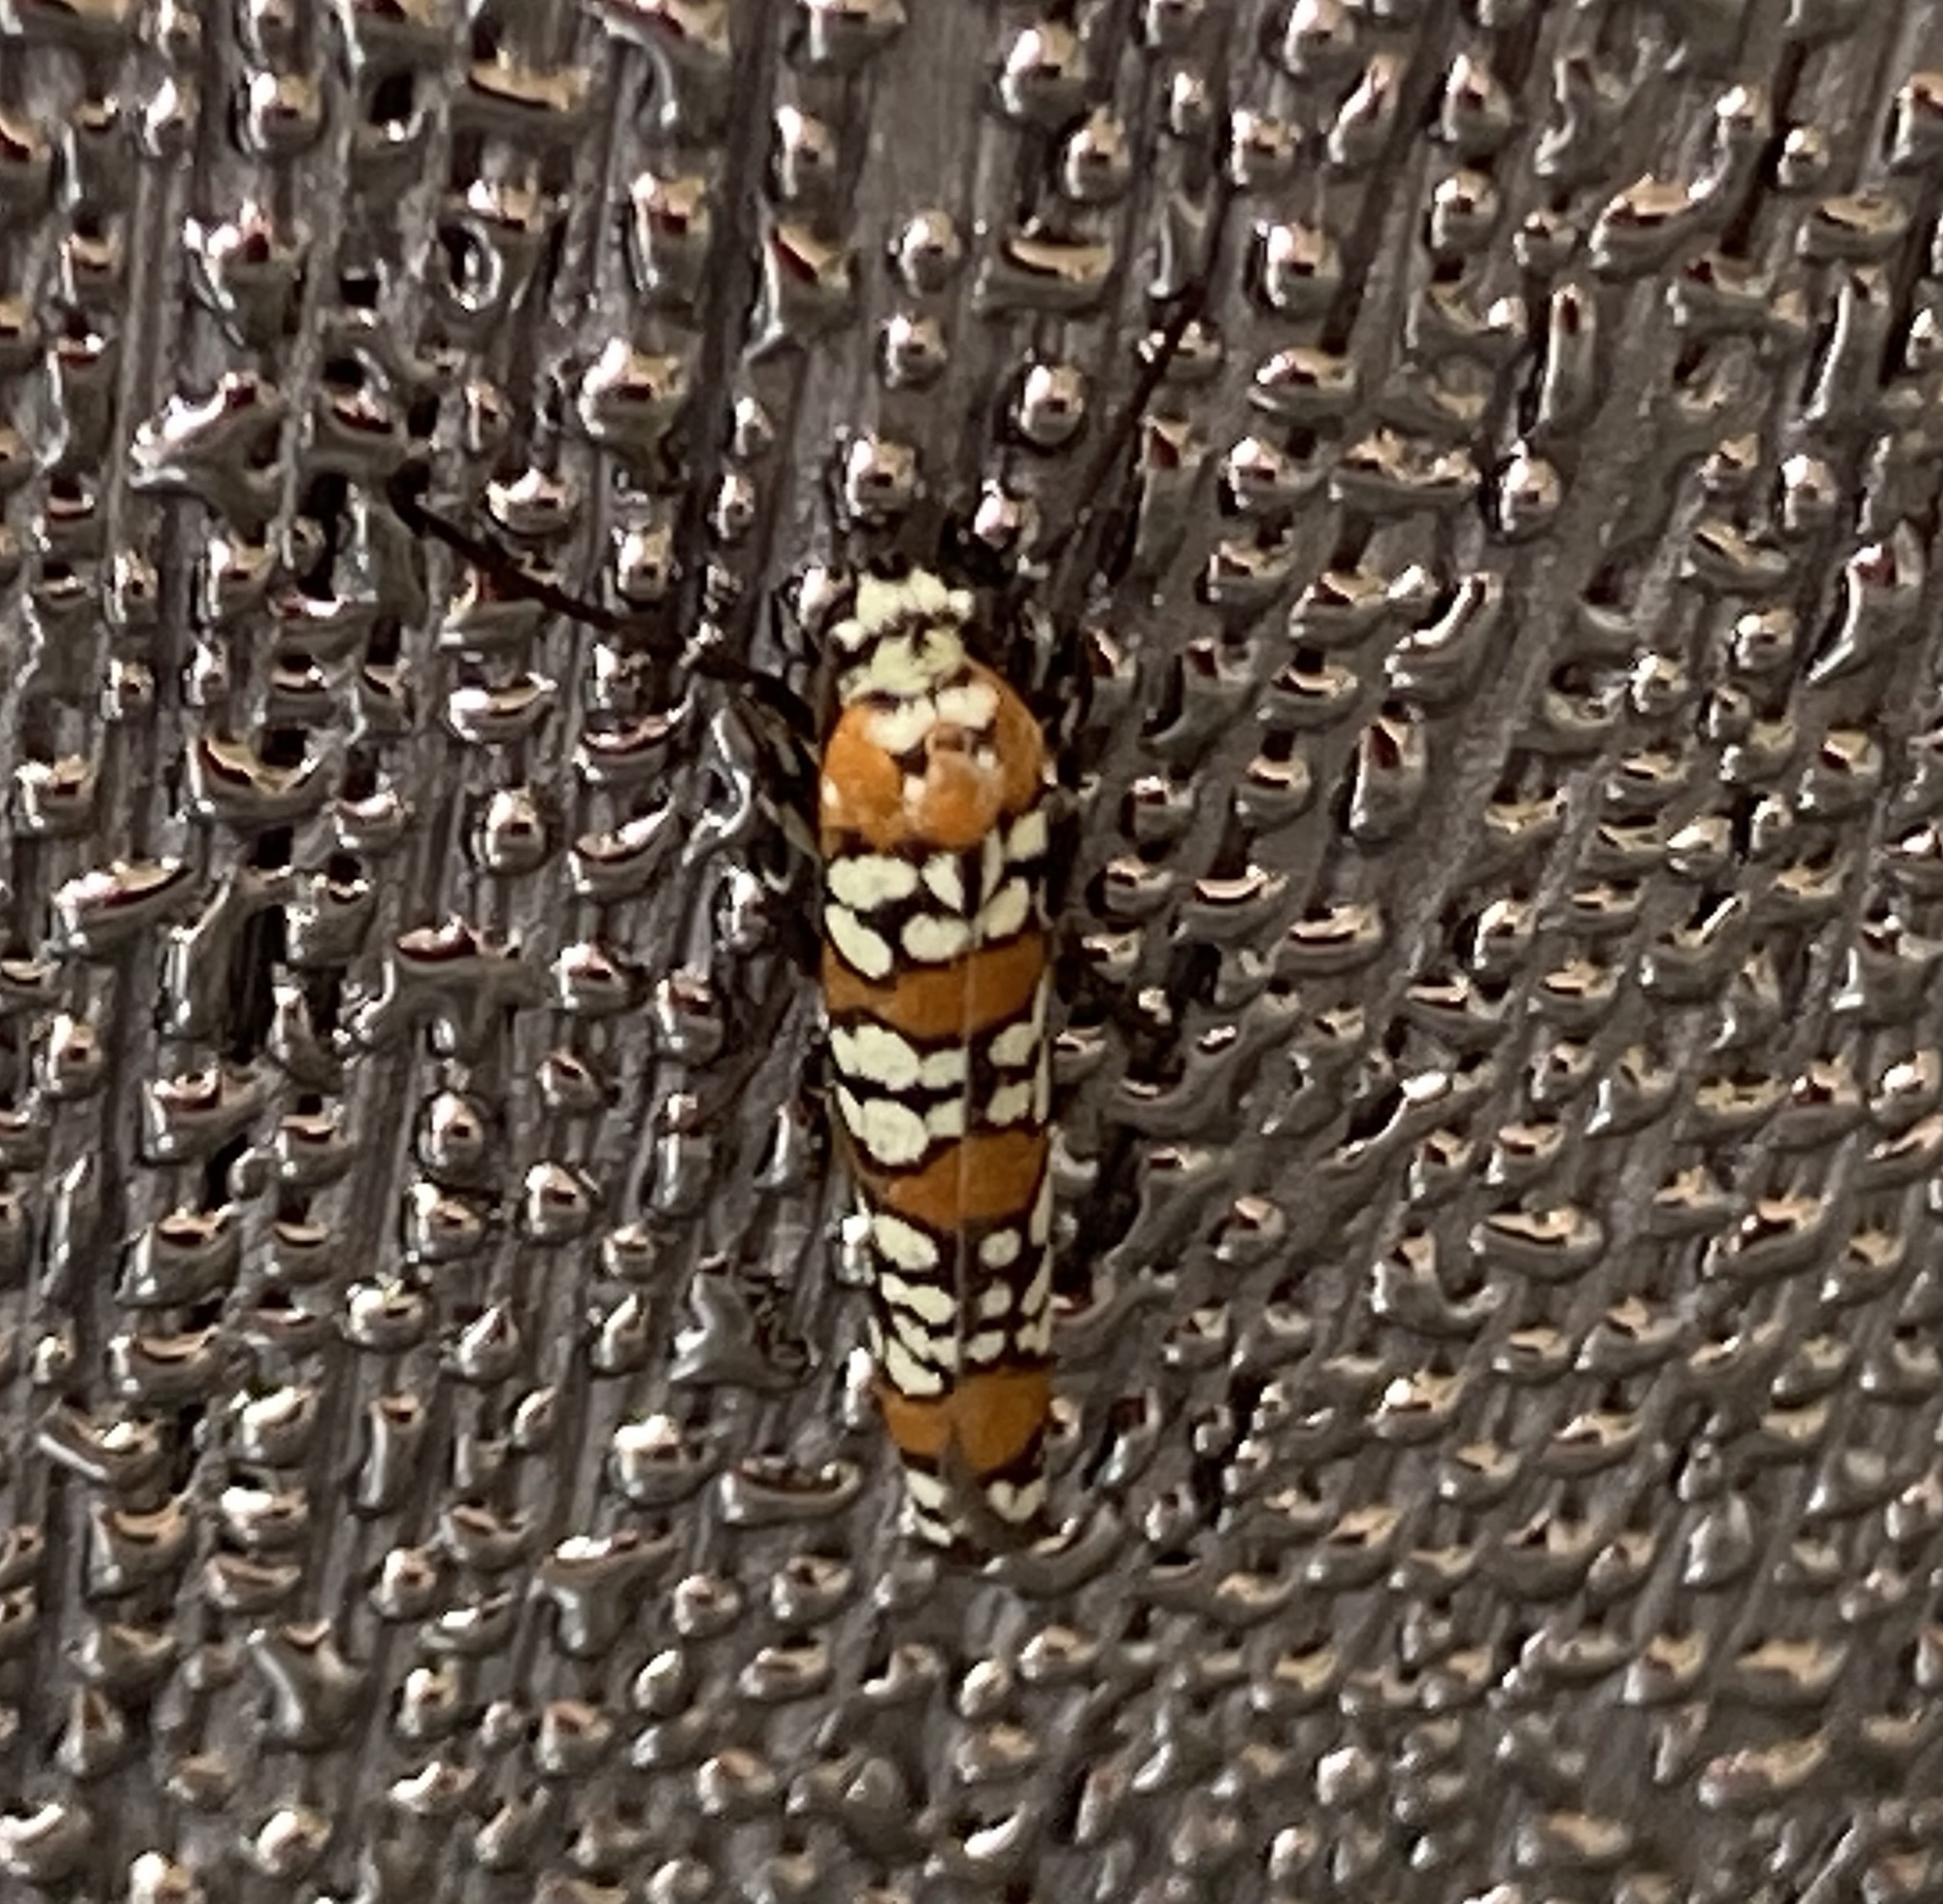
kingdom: Animalia
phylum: Arthropoda
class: Insecta
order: Lepidoptera
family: Attevidae
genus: Atteva
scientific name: Atteva punctella
